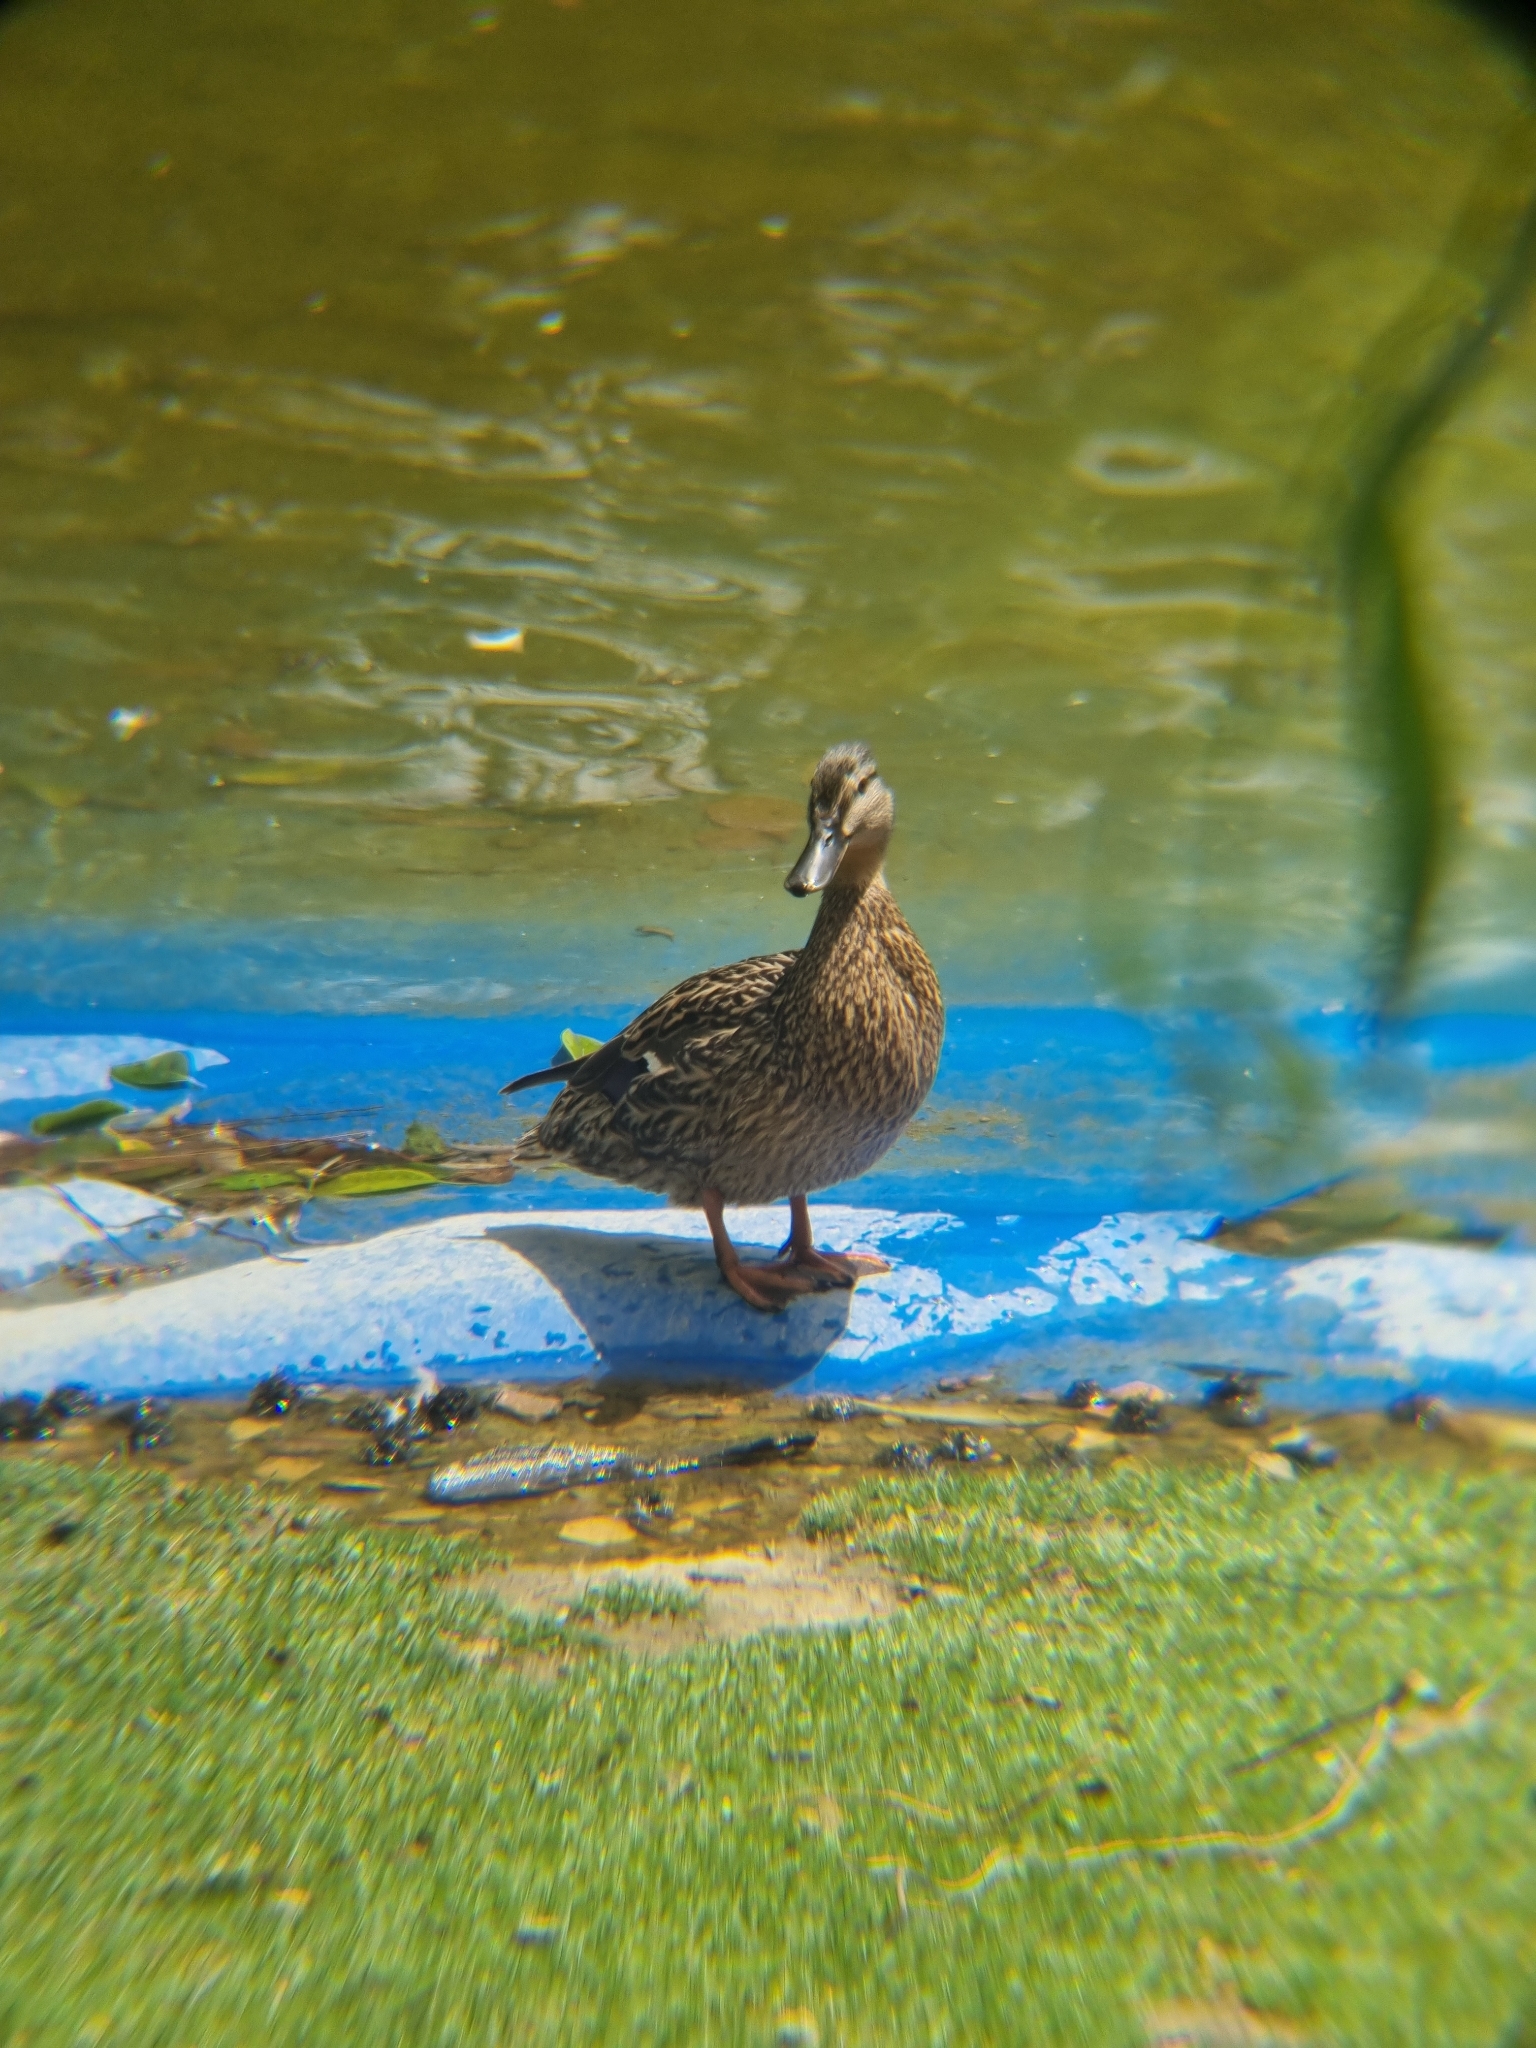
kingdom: Animalia
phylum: Chordata
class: Aves
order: Anseriformes
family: Anatidae
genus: Anas
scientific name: Anas platyrhynchos
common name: Mallard
